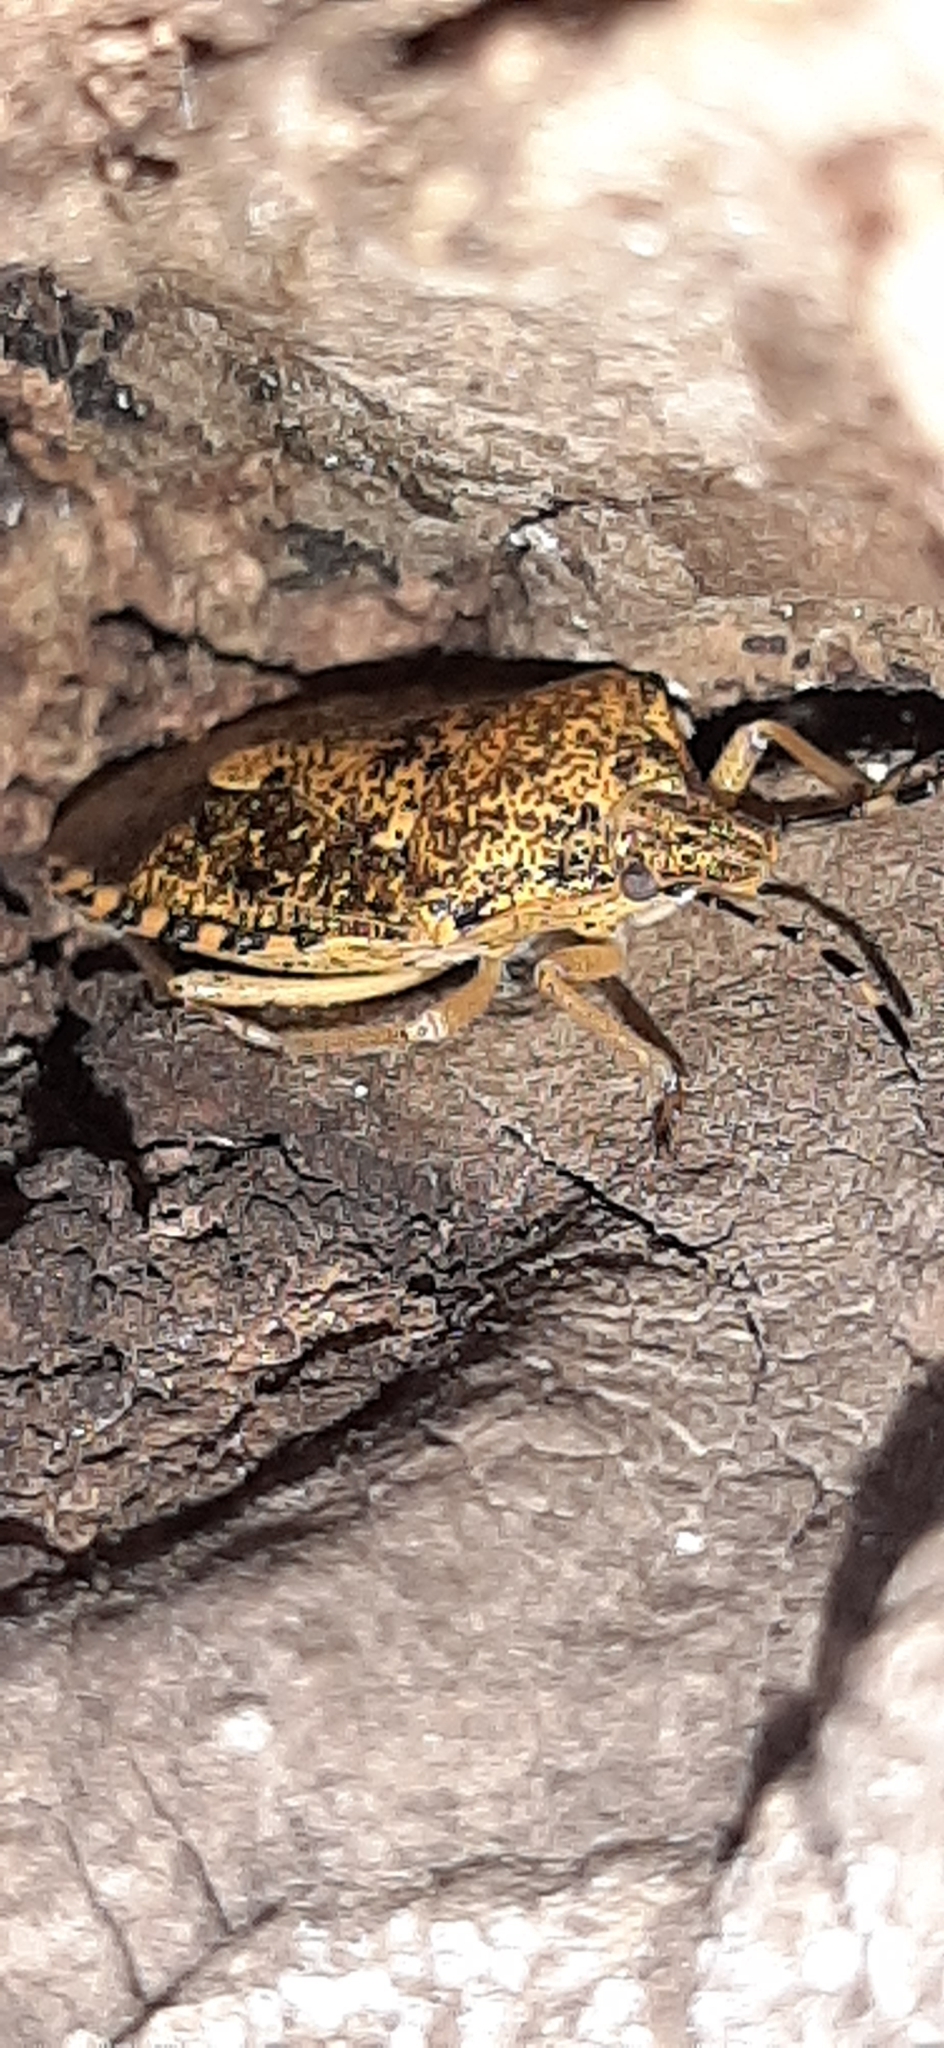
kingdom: Animalia
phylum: Arthropoda
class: Insecta
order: Hemiptera
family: Pentatomidae
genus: Rhaphigaster
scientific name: Rhaphigaster nebulosa
